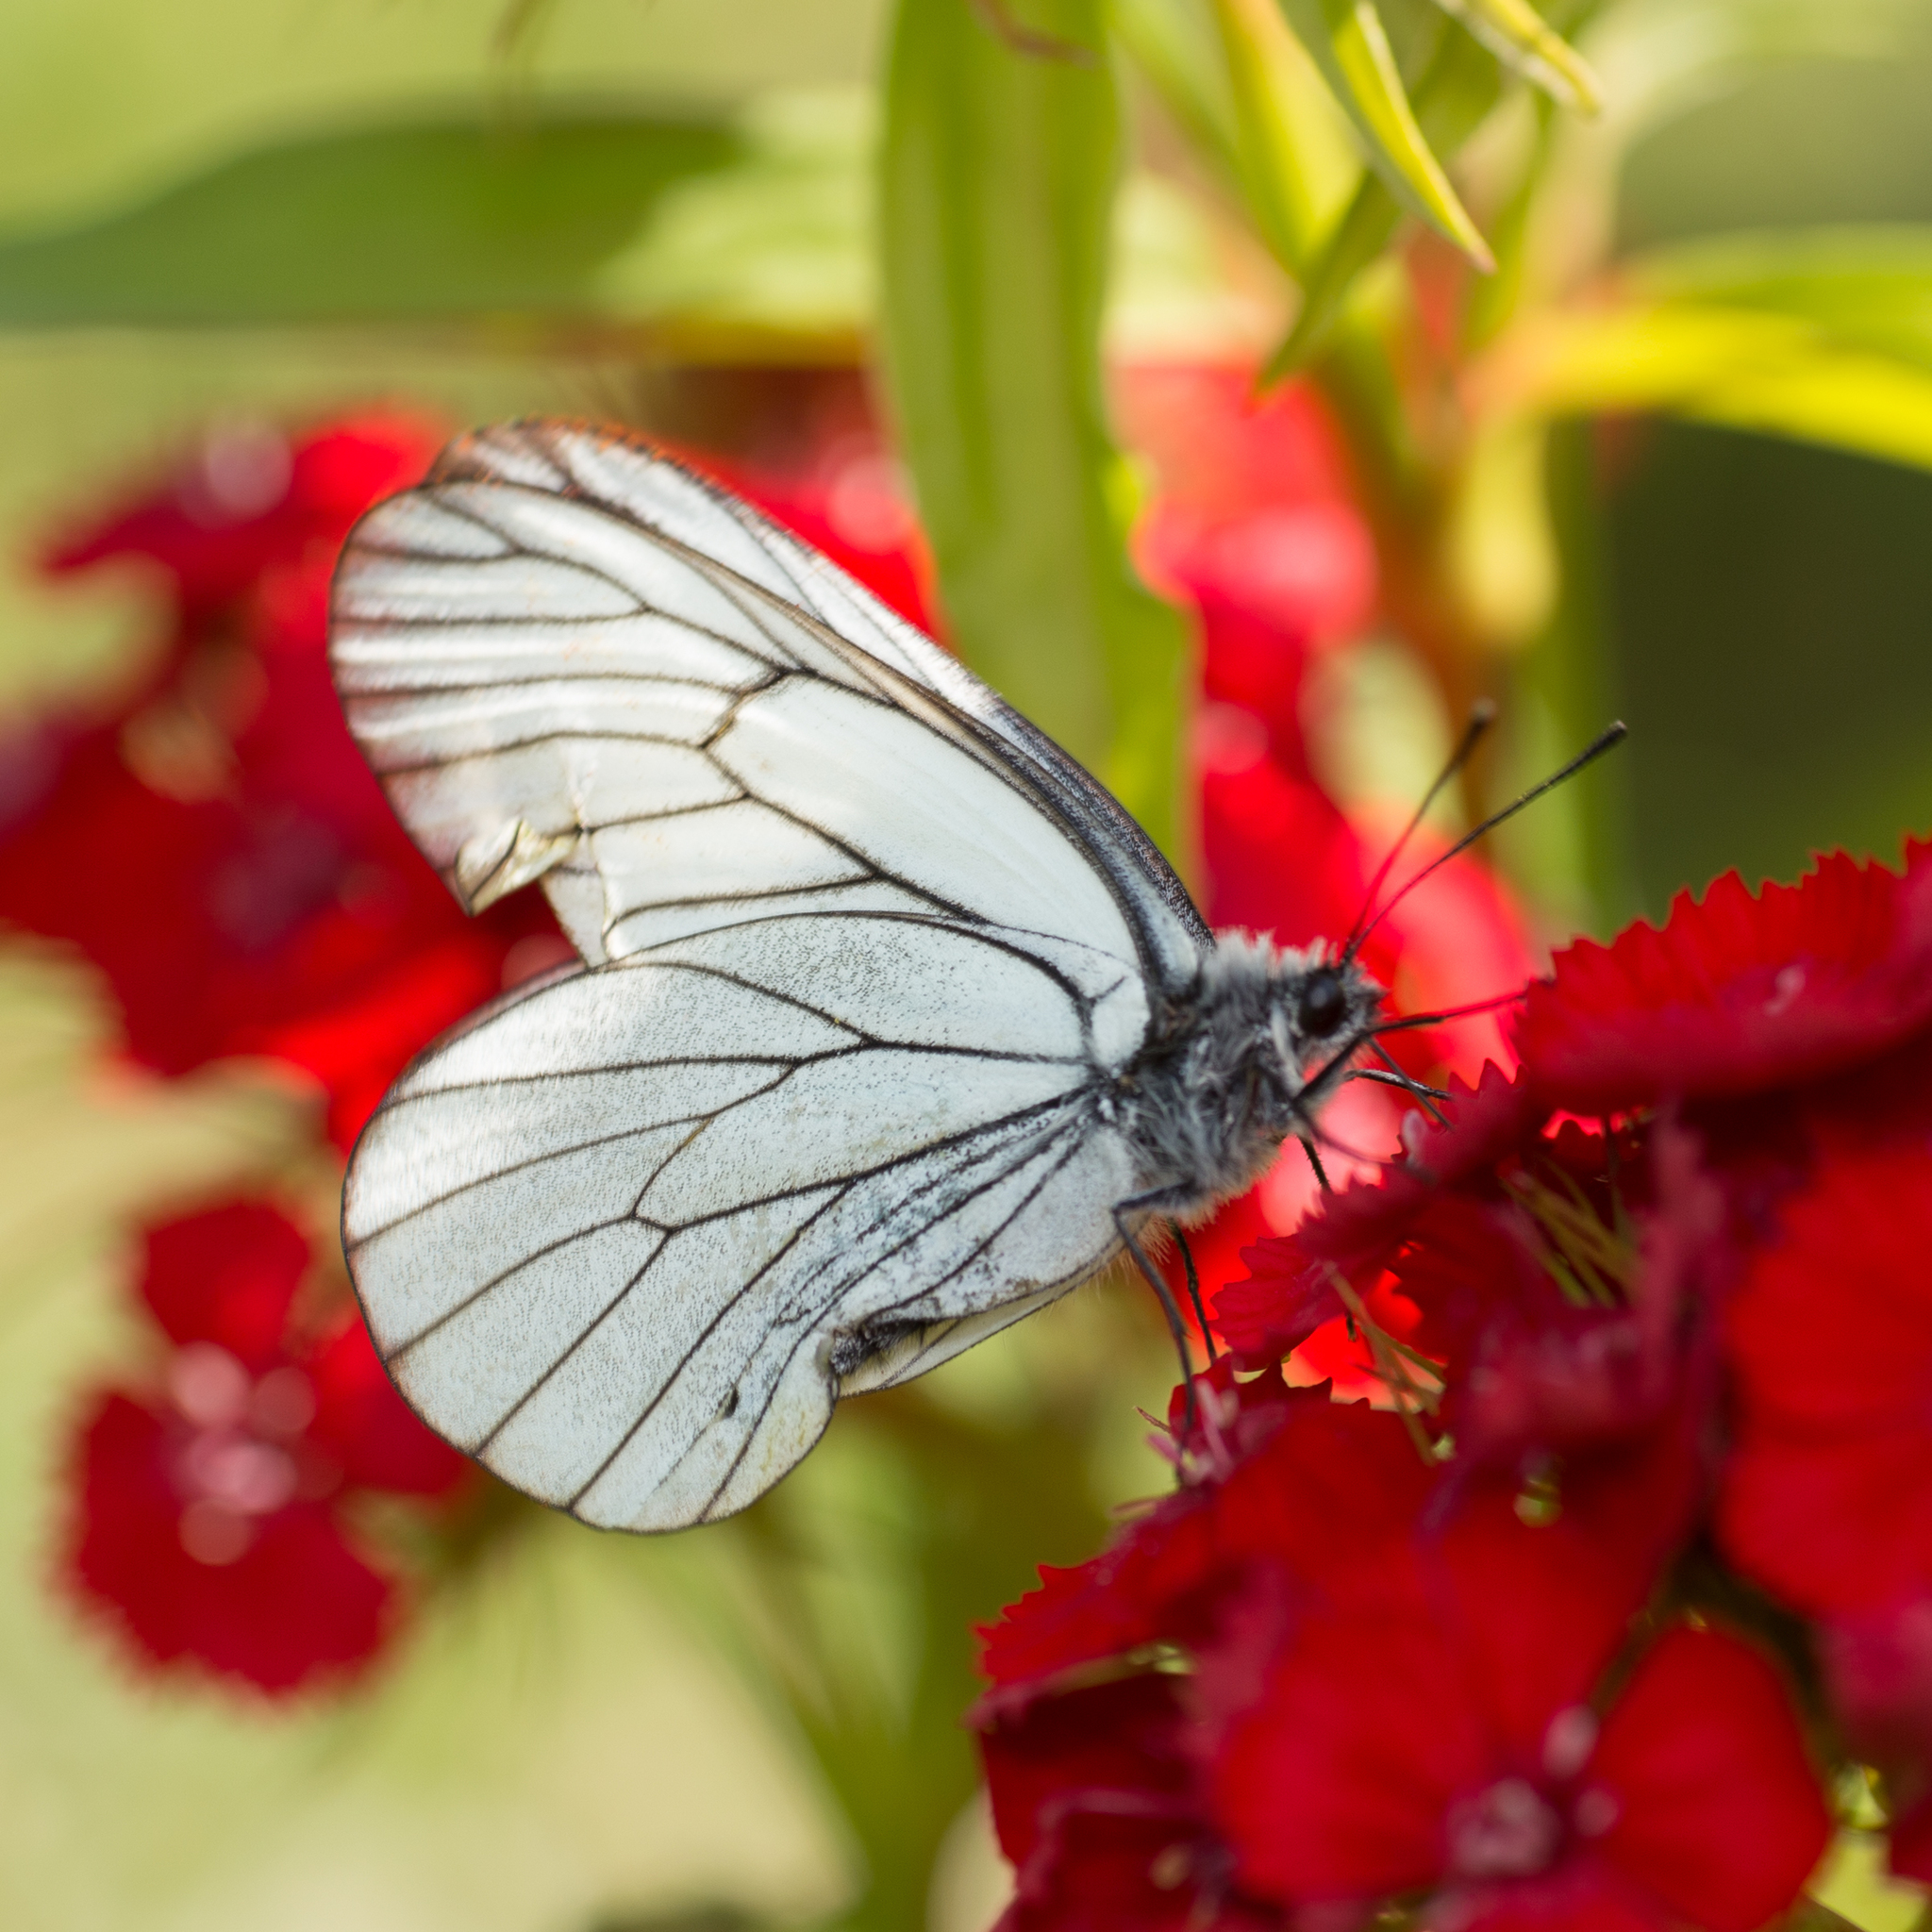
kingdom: Animalia
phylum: Arthropoda
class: Insecta
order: Lepidoptera
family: Pieridae
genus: Aporia
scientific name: Aporia crataegi
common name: Black-veined white
